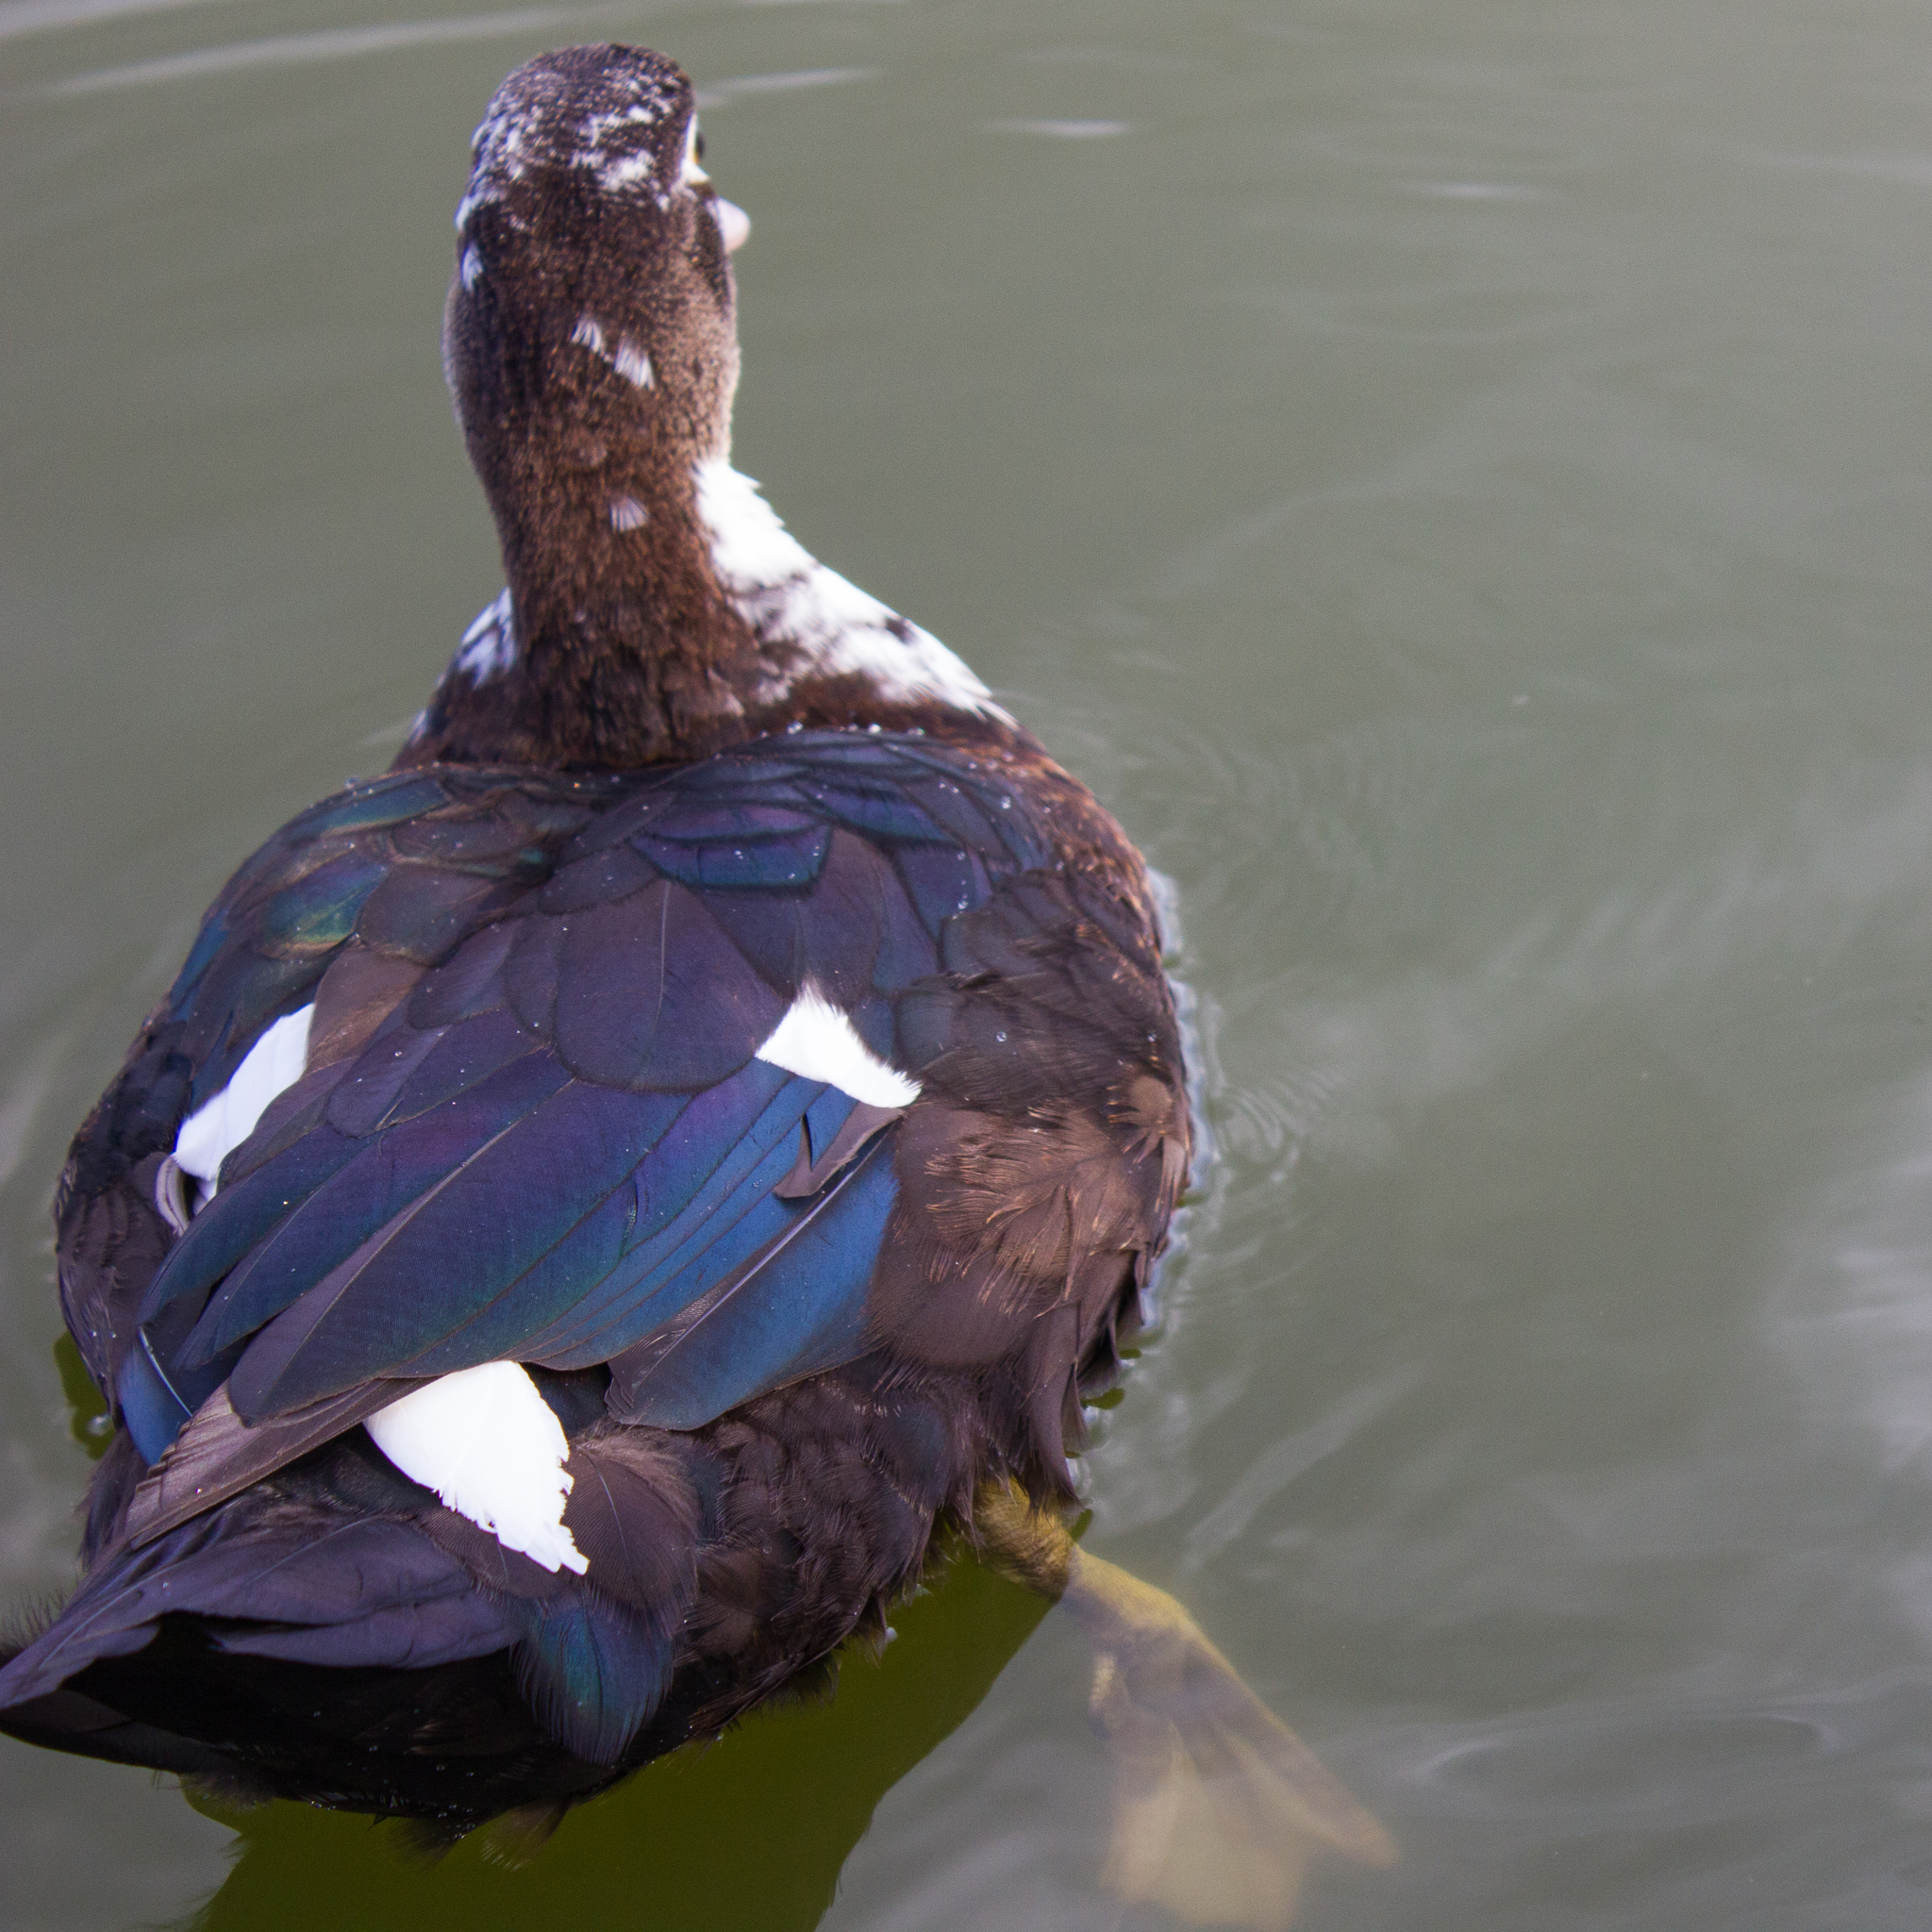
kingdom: Animalia
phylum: Chordata
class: Aves
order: Anseriformes
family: Anatidae
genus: Cairina
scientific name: Cairina moschata
